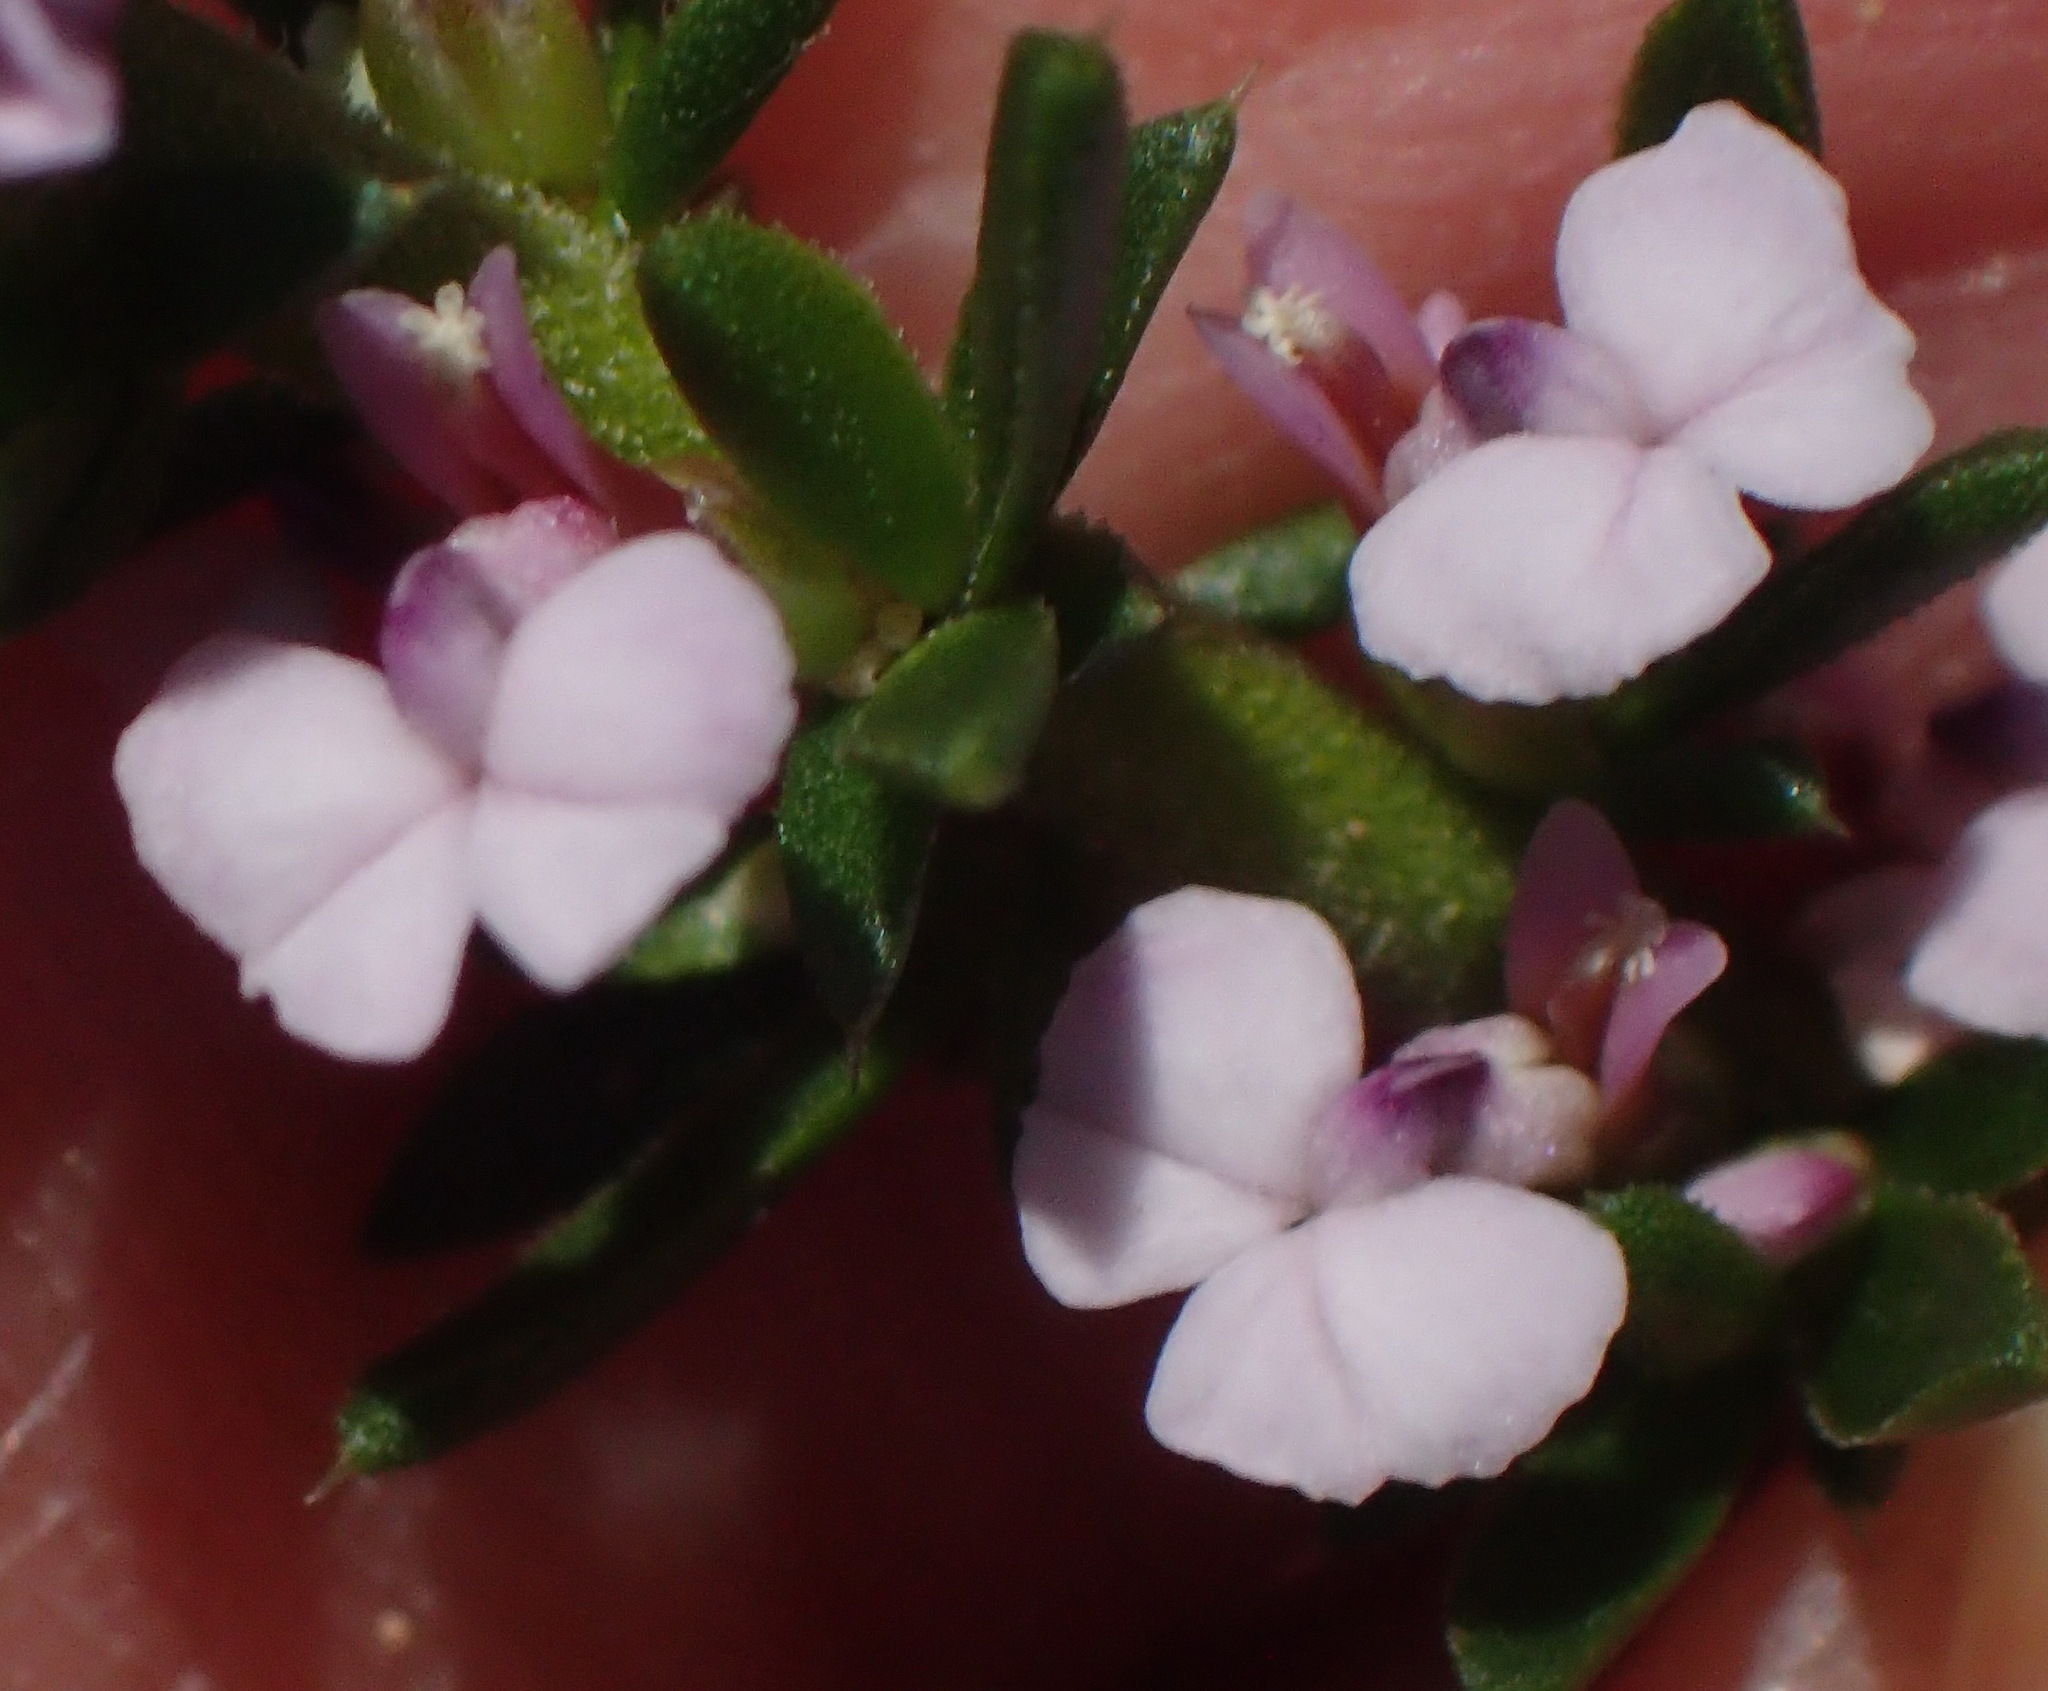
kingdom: Plantae
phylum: Tracheophyta
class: Magnoliopsida
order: Fabales
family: Polygalaceae
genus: Muraltia
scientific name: Muraltia satureioides
